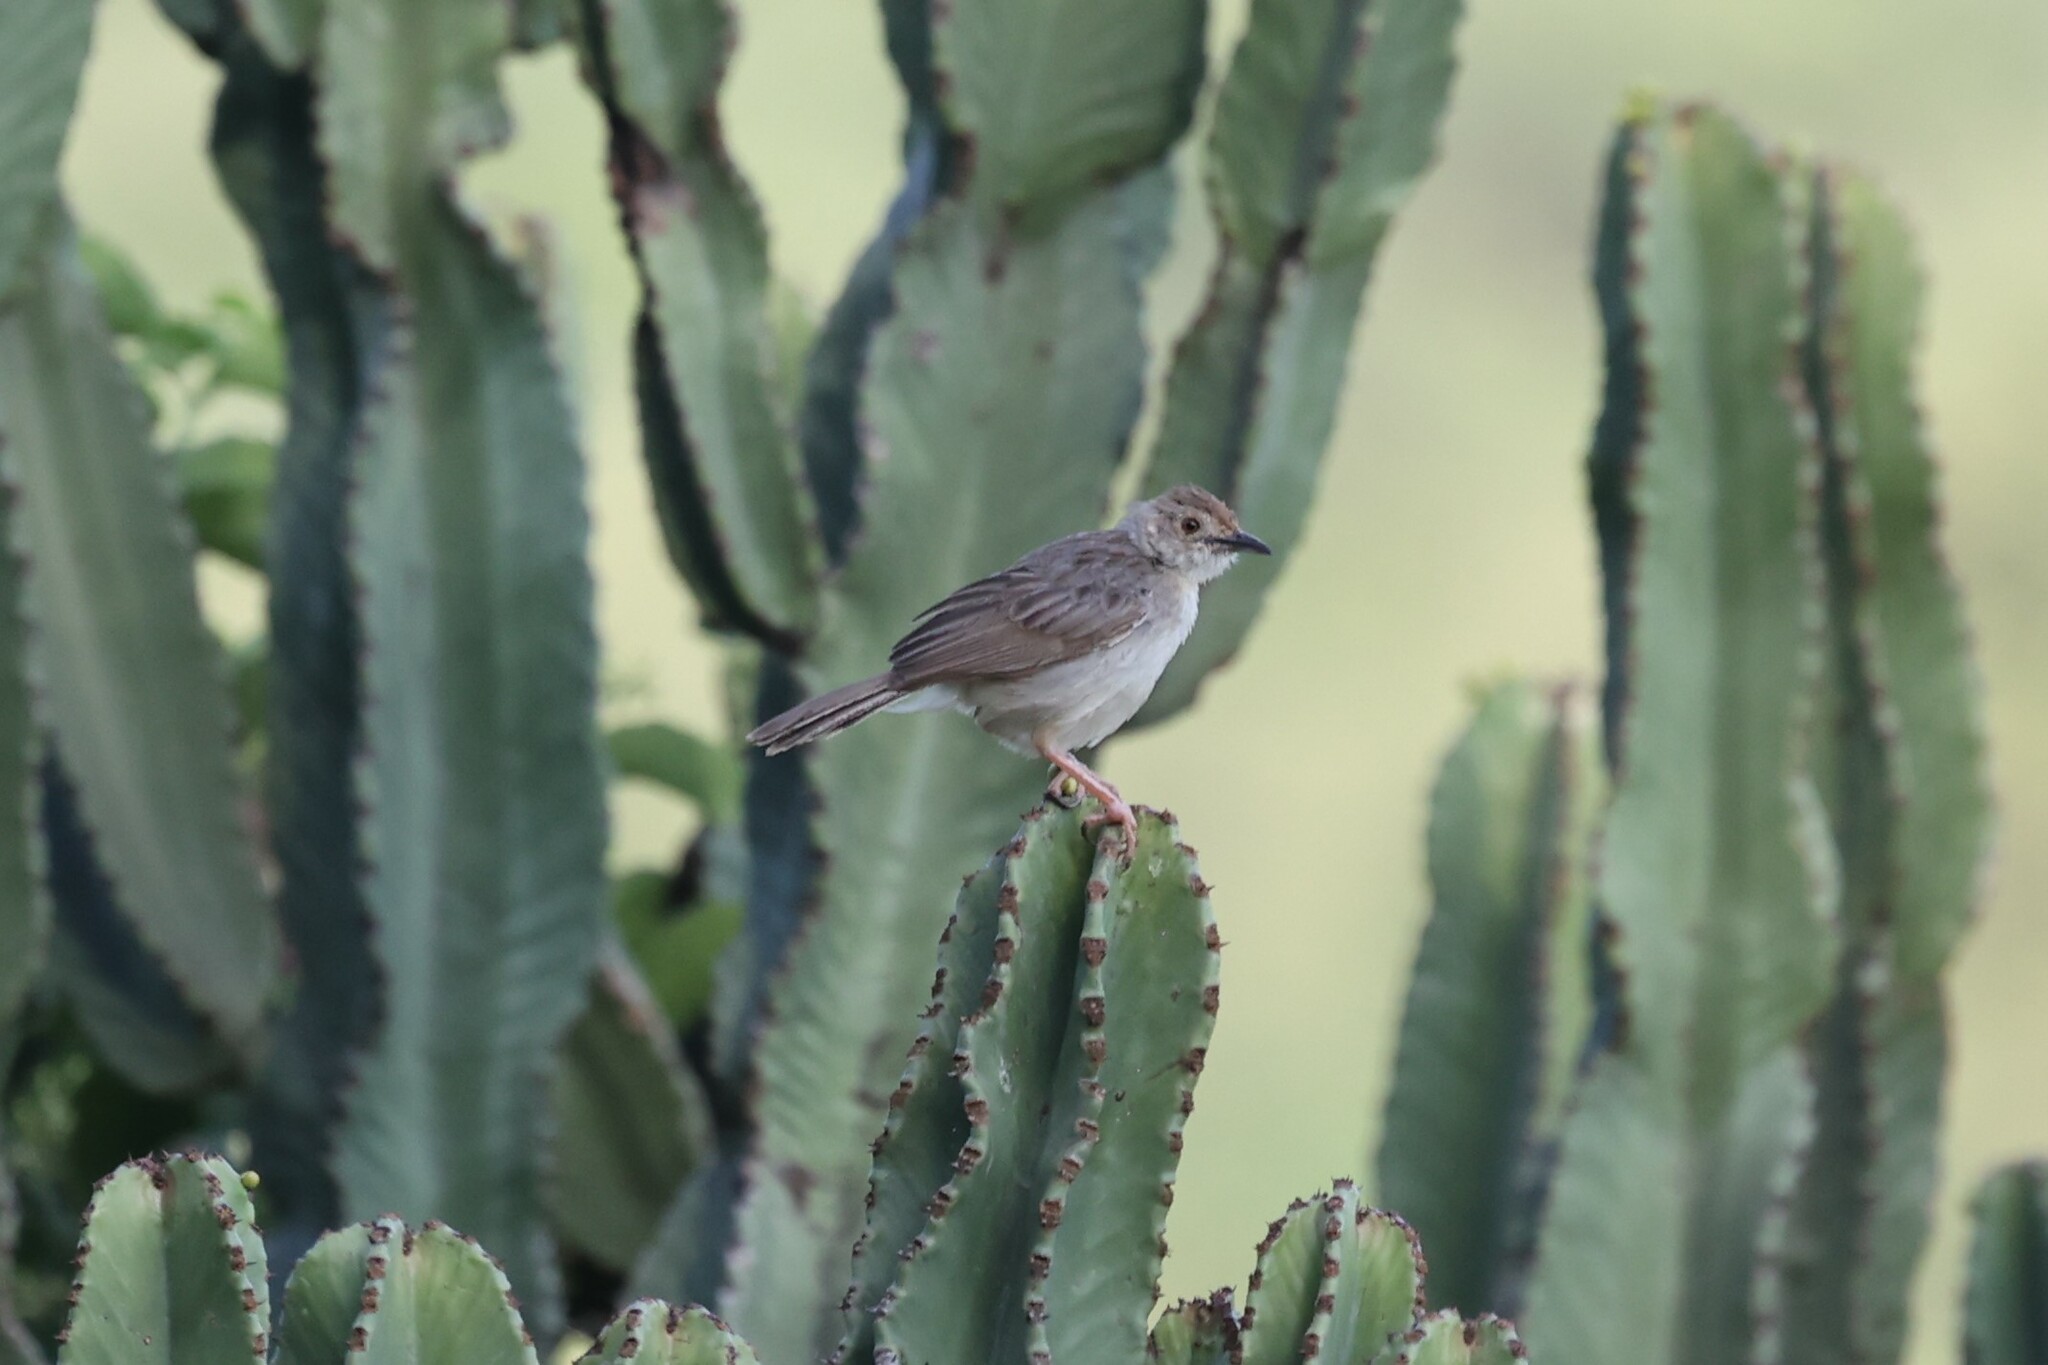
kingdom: Animalia
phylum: Chordata
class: Aves
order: Passeriformes
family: Cisticolidae
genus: Cisticola
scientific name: Cisticola chiniana
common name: Rattling cisticola
